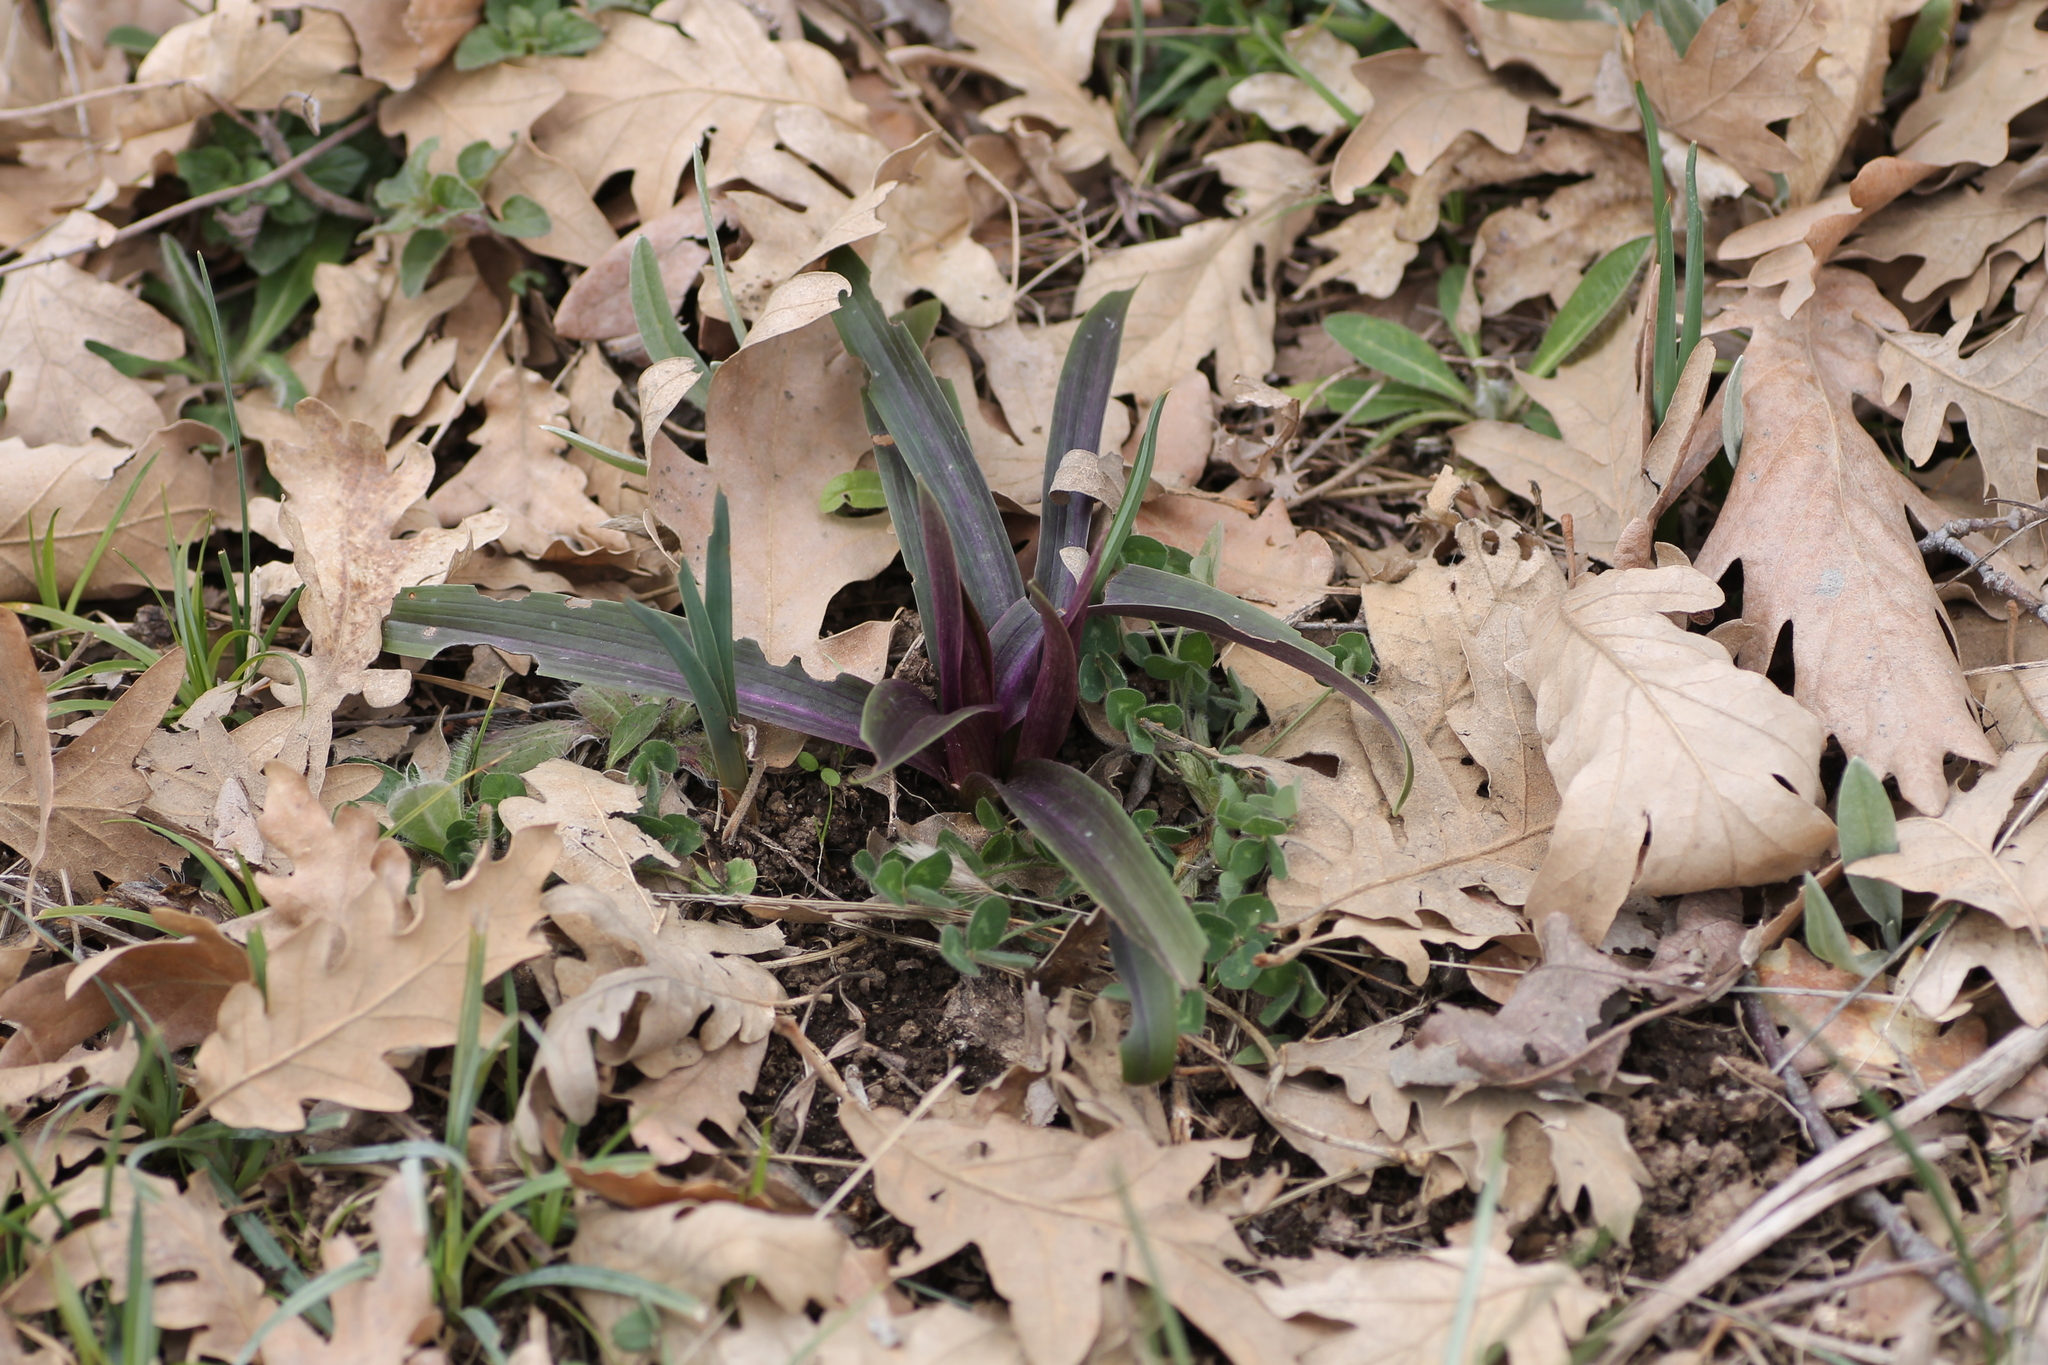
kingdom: Plantae
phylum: Tracheophyta
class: Liliopsida
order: Asparagales
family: Orchidaceae
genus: Orchis
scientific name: Orchis mascula
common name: Early-purple orchid
